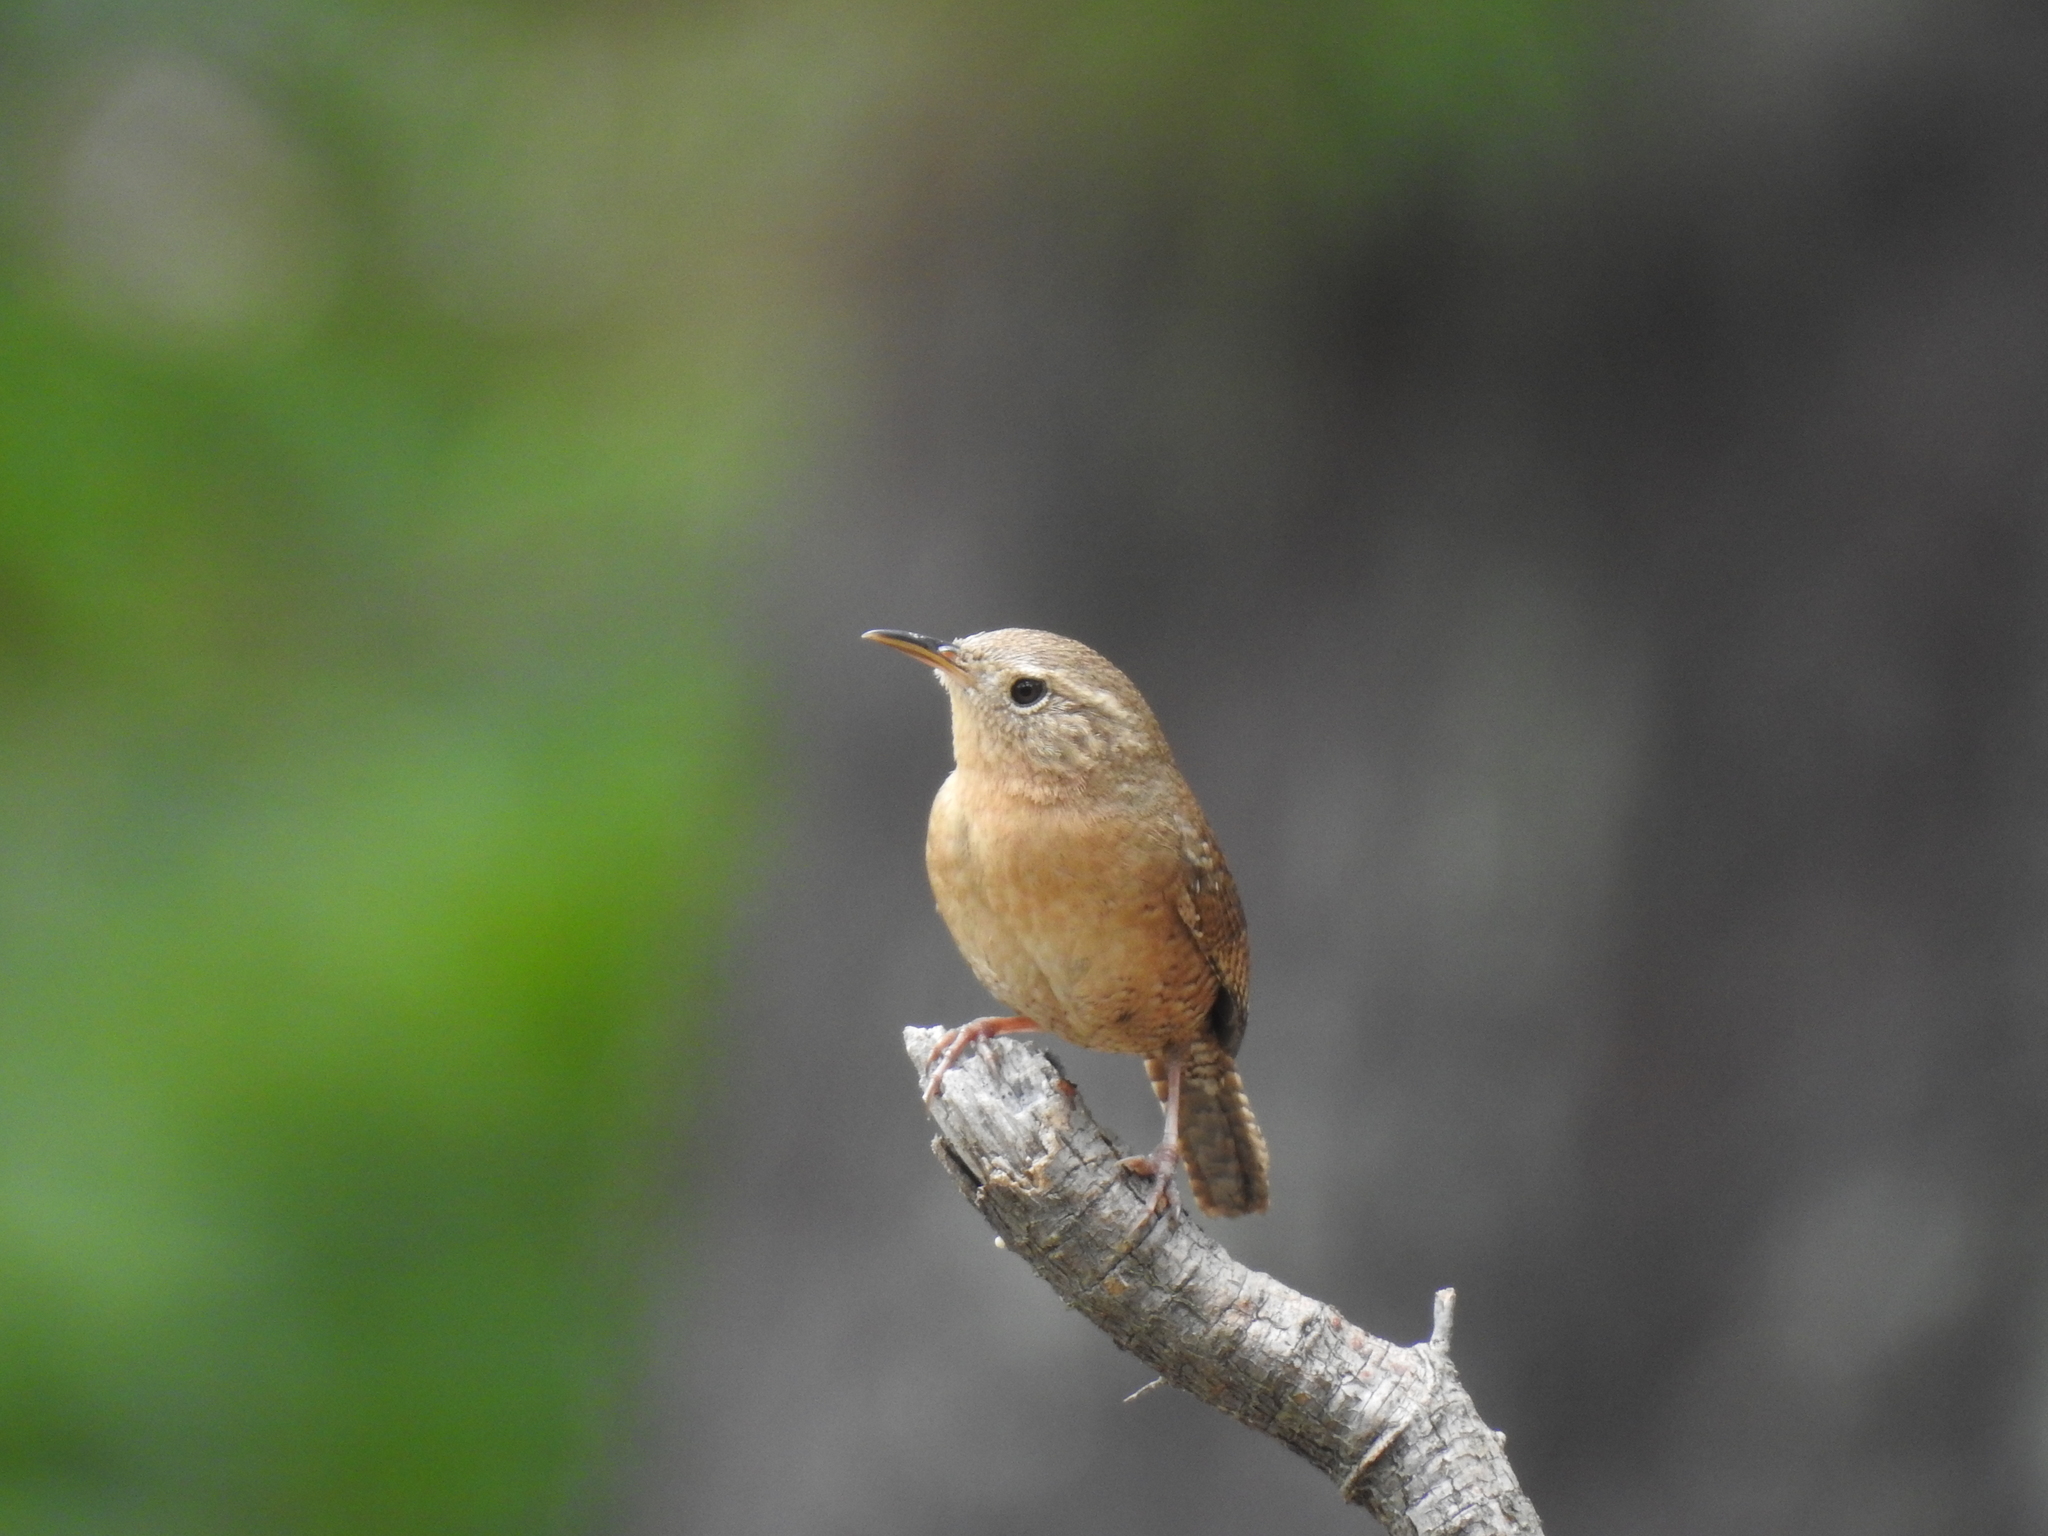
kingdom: Animalia
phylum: Chordata
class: Aves
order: Passeriformes
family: Troglodytidae
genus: Troglodytes
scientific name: Troglodytes aedon
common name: House wren
